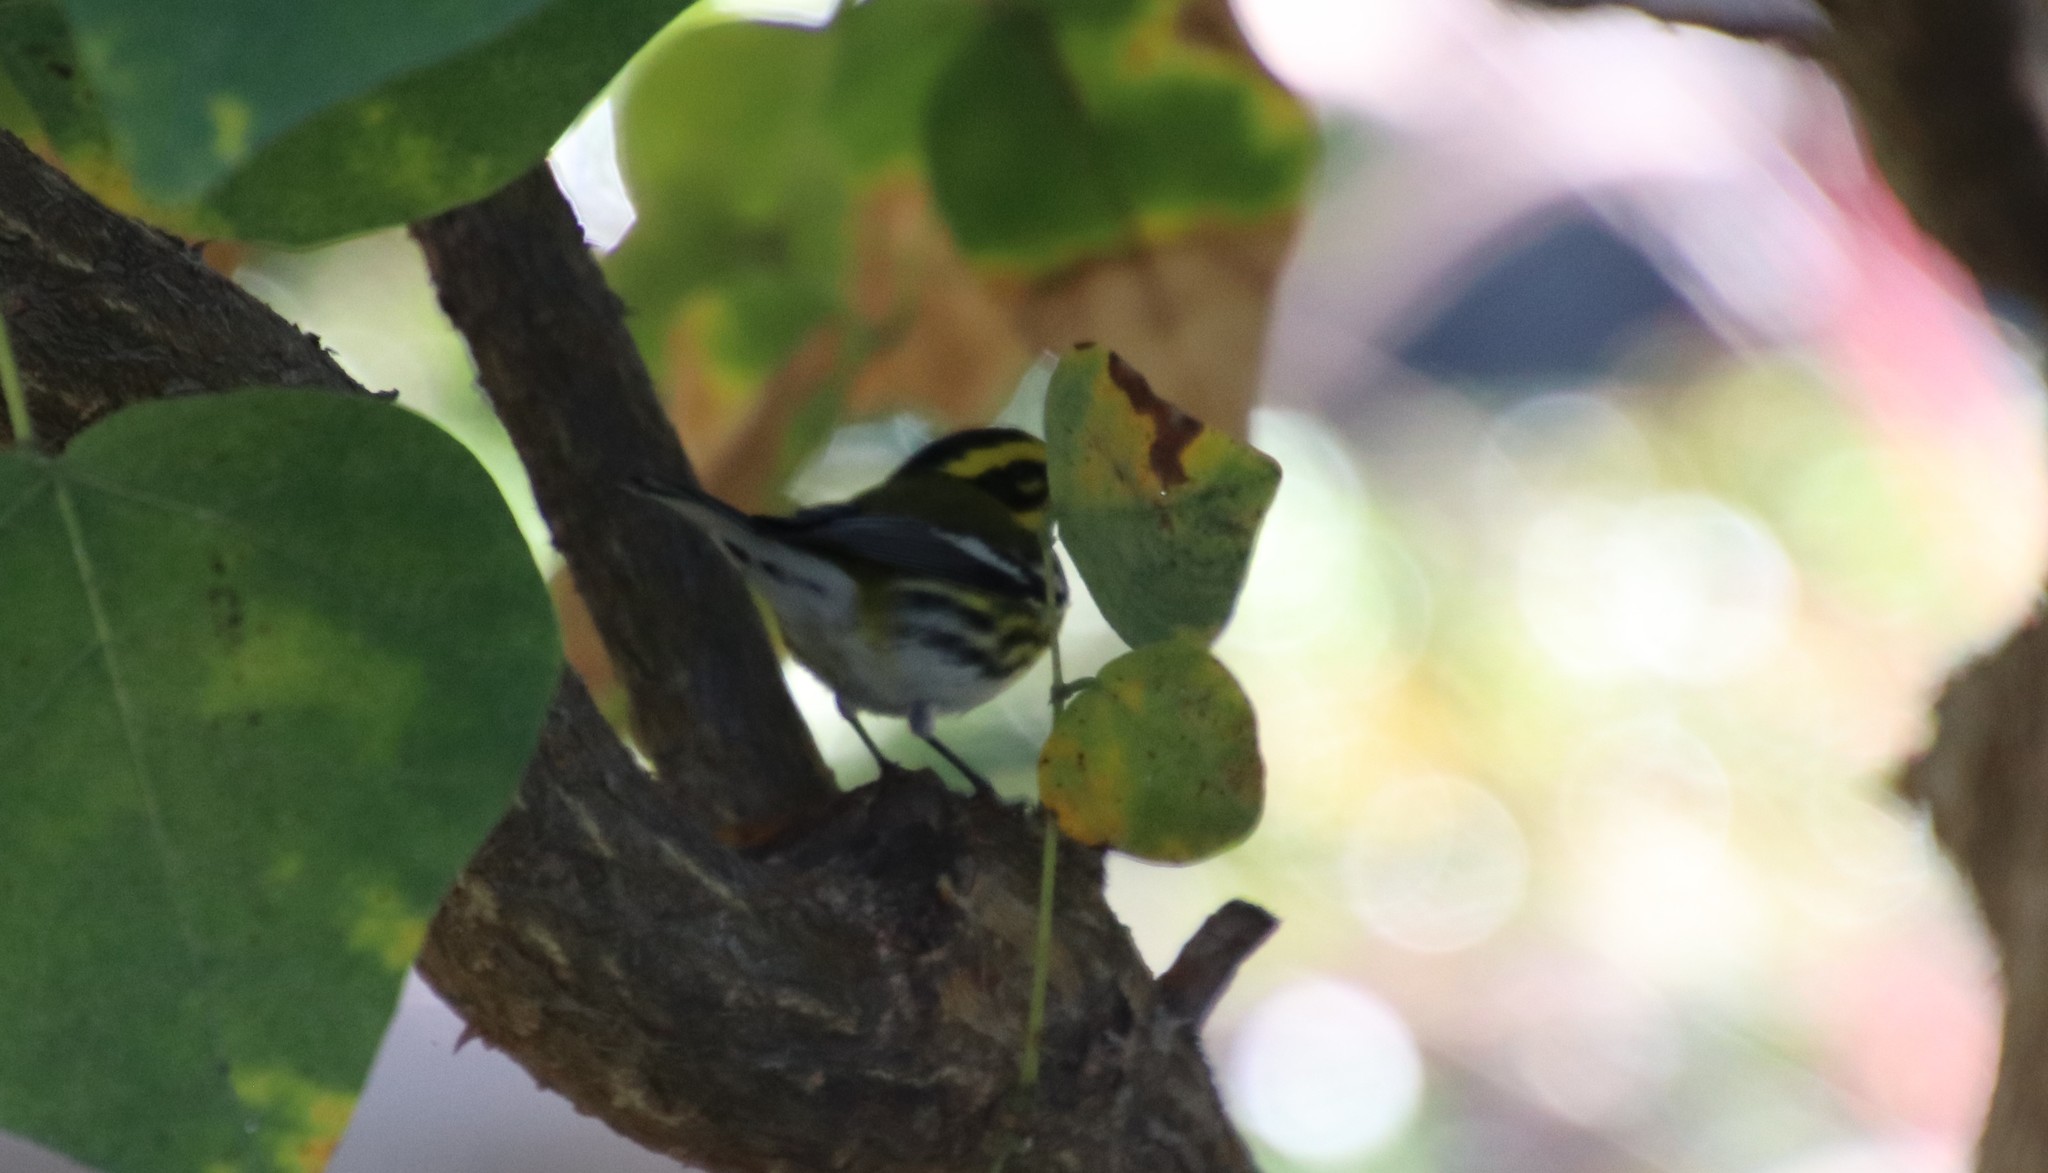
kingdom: Animalia
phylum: Chordata
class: Aves
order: Passeriformes
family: Parulidae
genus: Setophaga
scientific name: Setophaga townsendi
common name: Townsend's warbler
